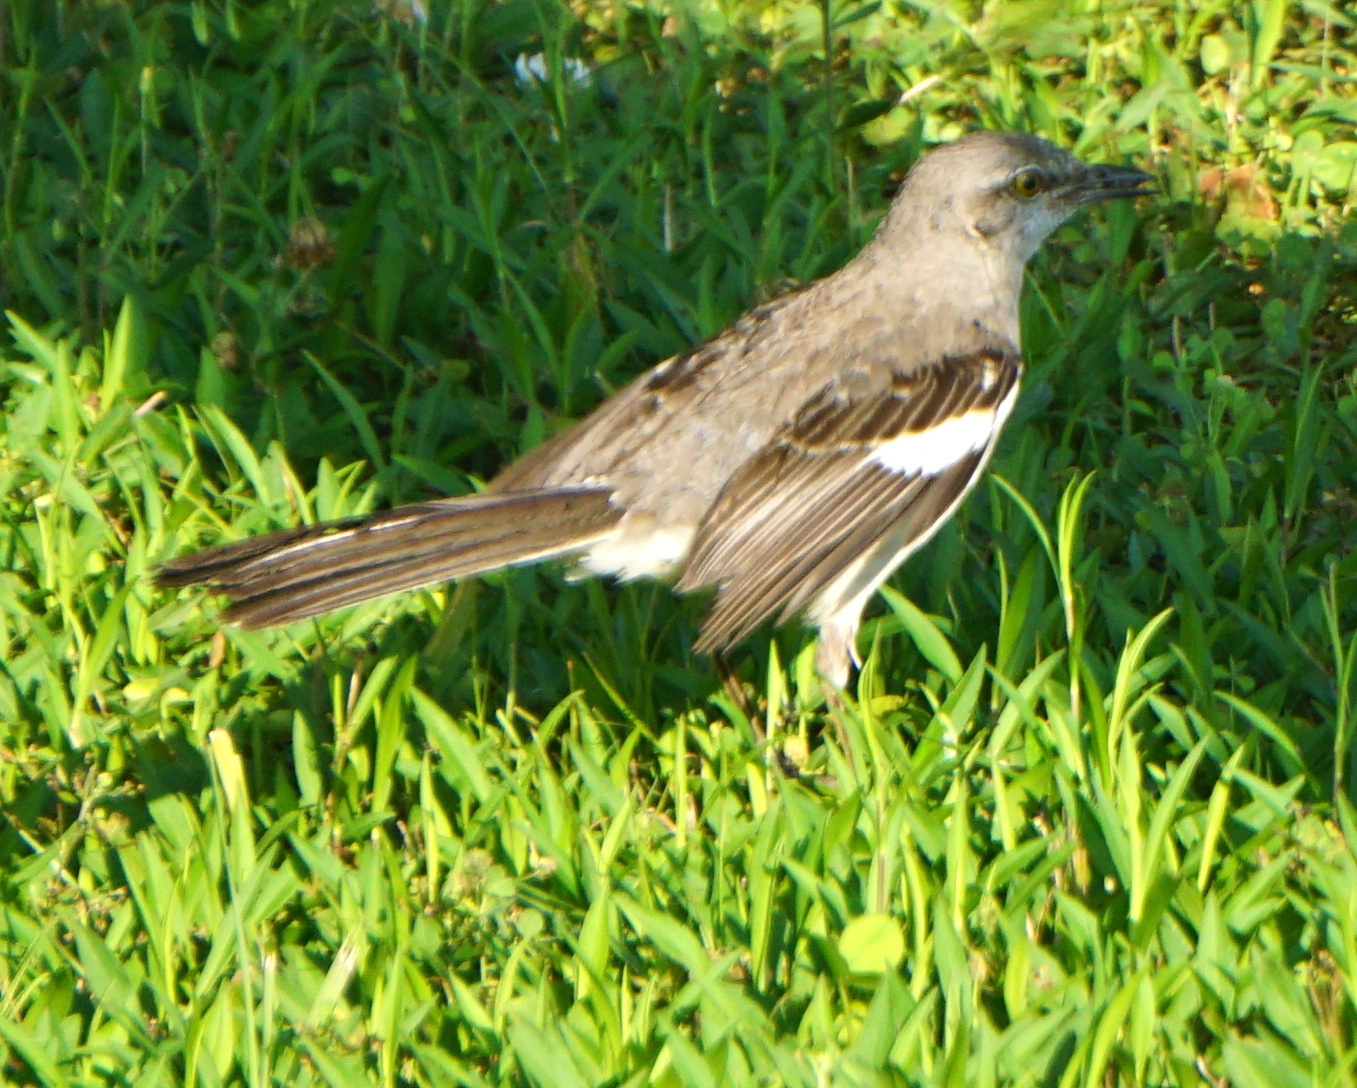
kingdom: Animalia
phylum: Chordata
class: Aves
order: Passeriformes
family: Mimidae
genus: Mimus
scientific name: Mimus polyglottos
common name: Northern mockingbird
